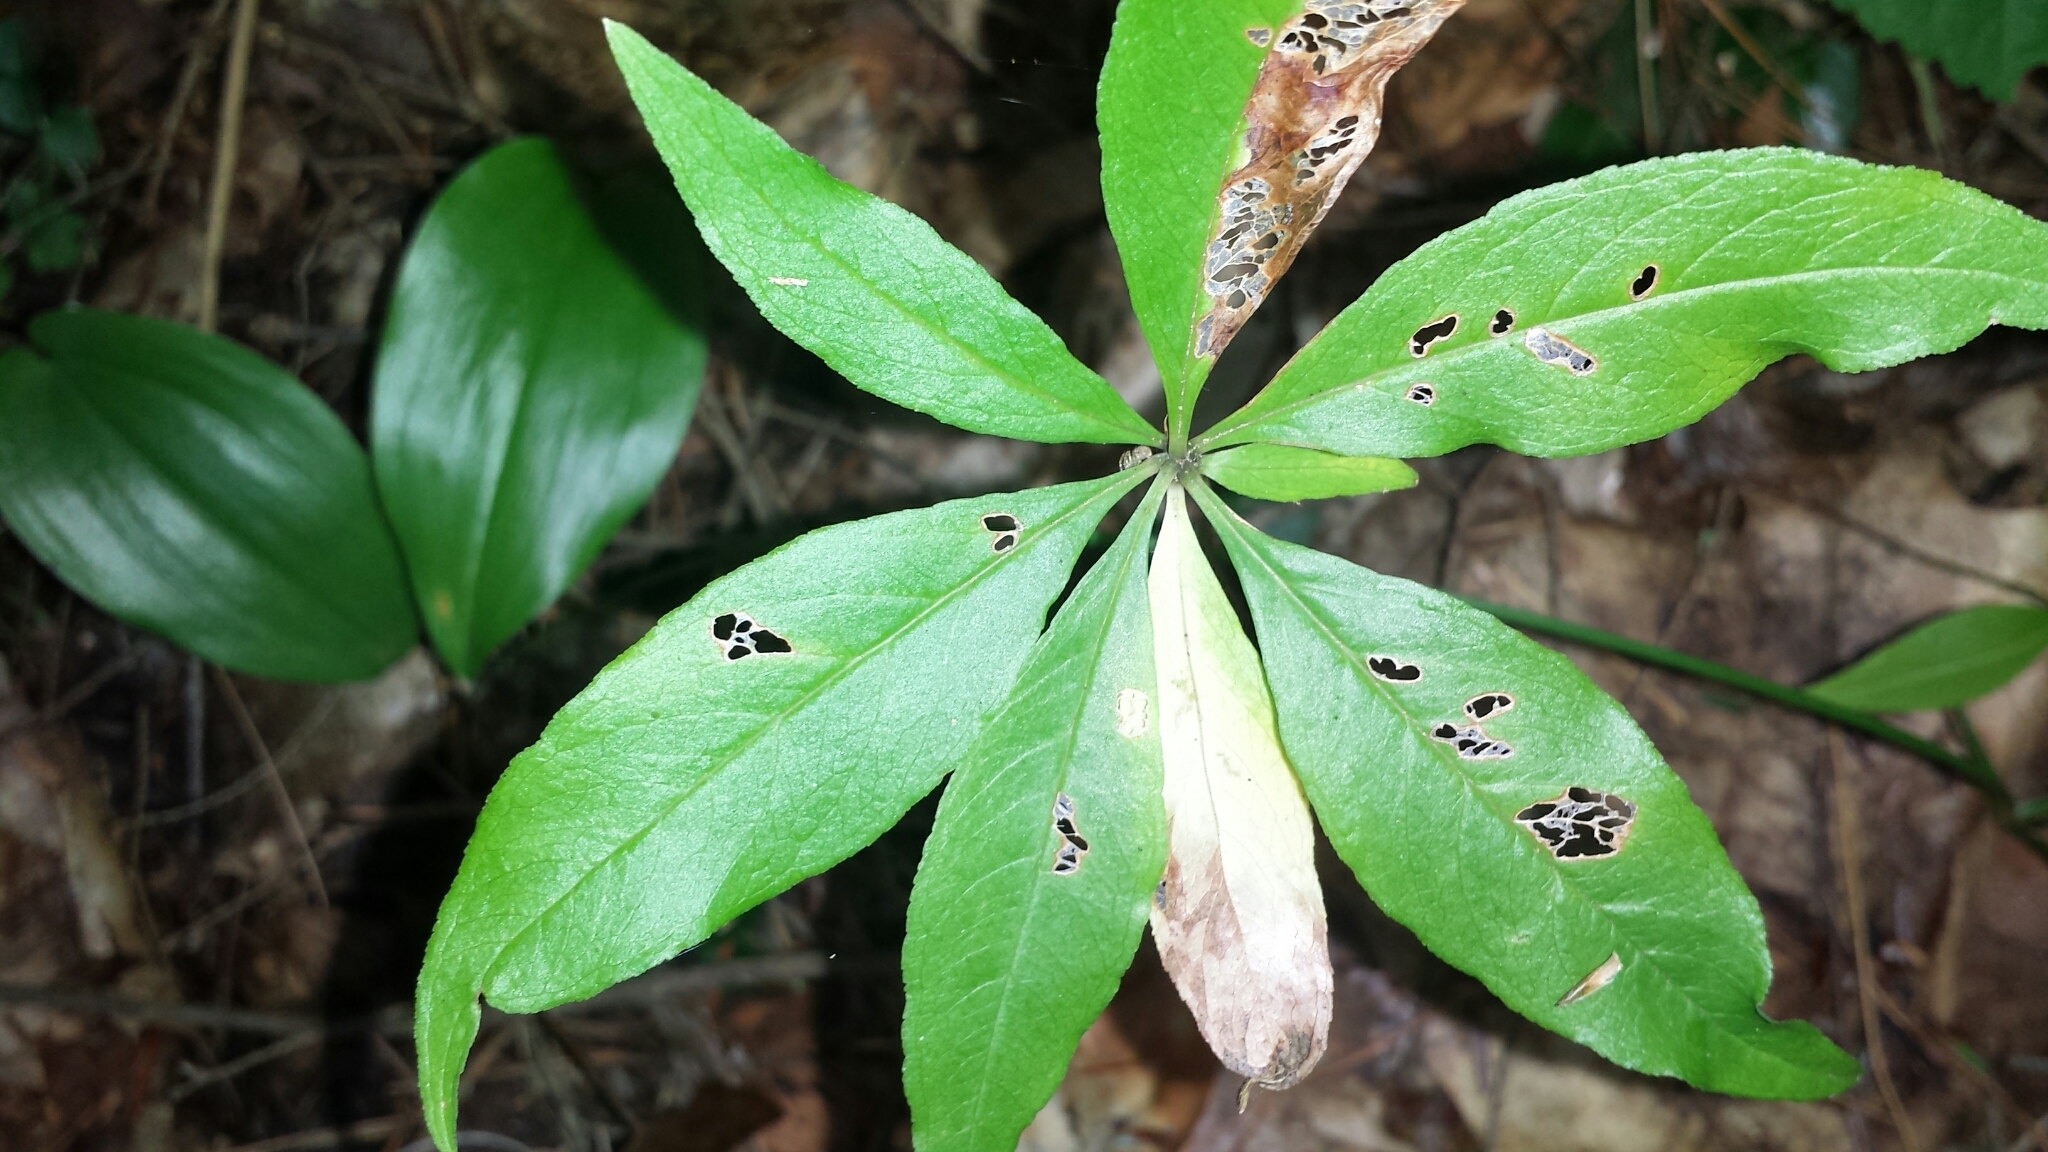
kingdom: Plantae
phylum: Tracheophyta
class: Magnoliopsida
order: Ericales
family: Primulaceae
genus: Lysimachia
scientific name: Lysimachia borealis
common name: American starflower
